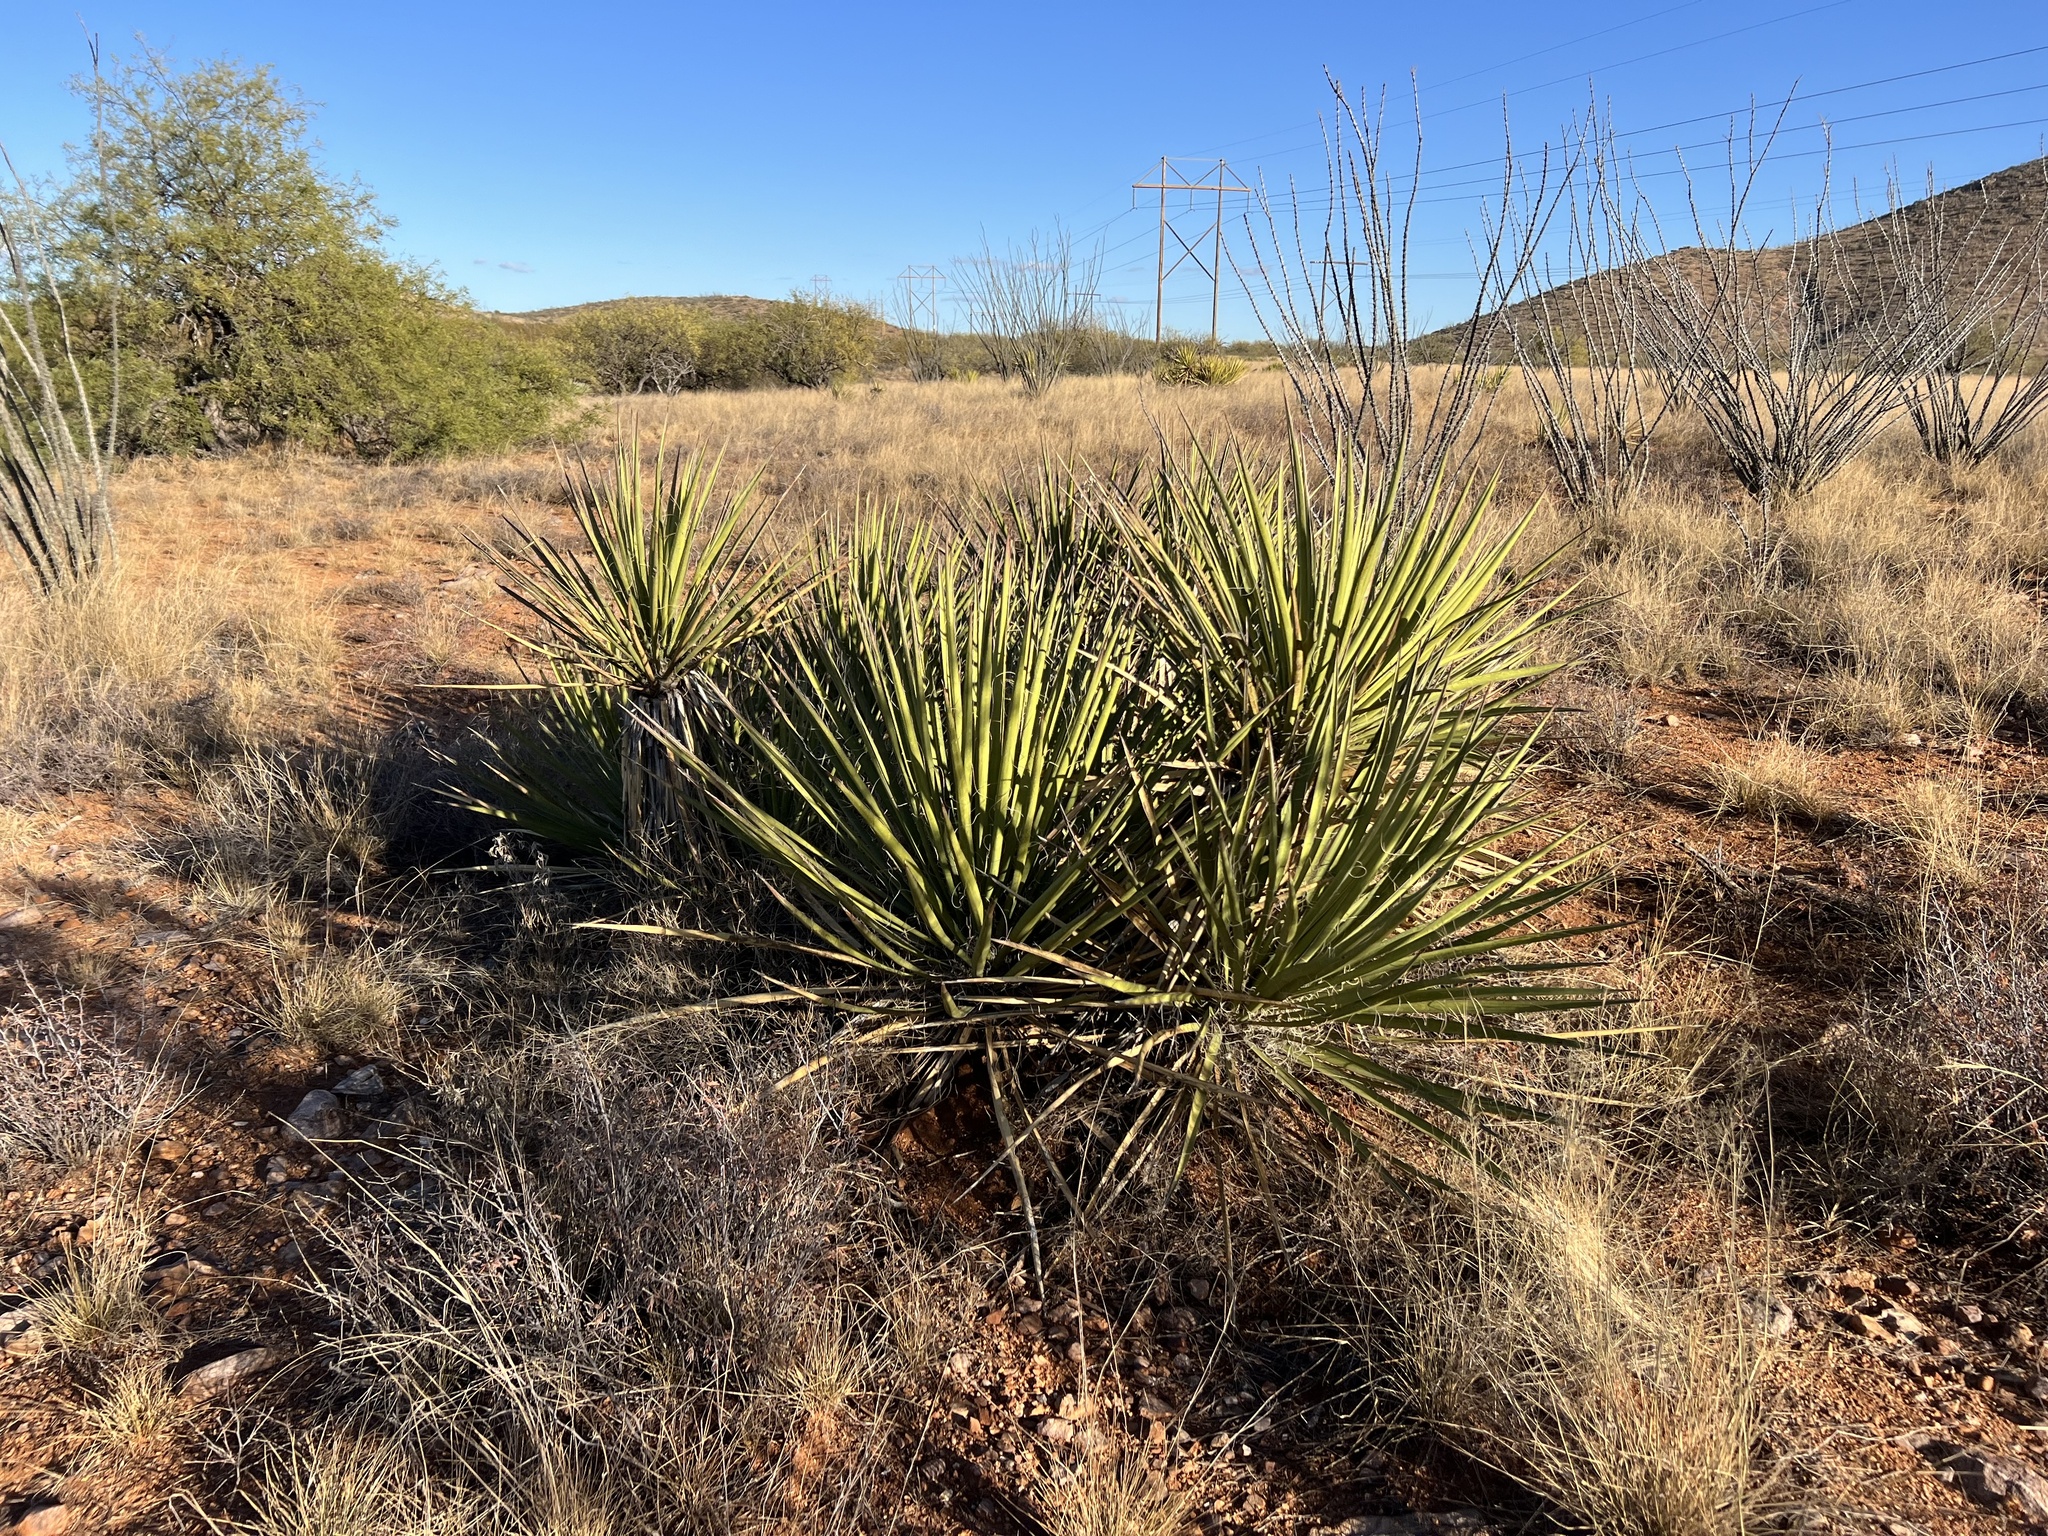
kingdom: Plantae
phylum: Tracheophyta
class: Liliopsida
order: Asparagales
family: Asparagaceae
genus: Yucca
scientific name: Yucca baccata
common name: Banana yucca
